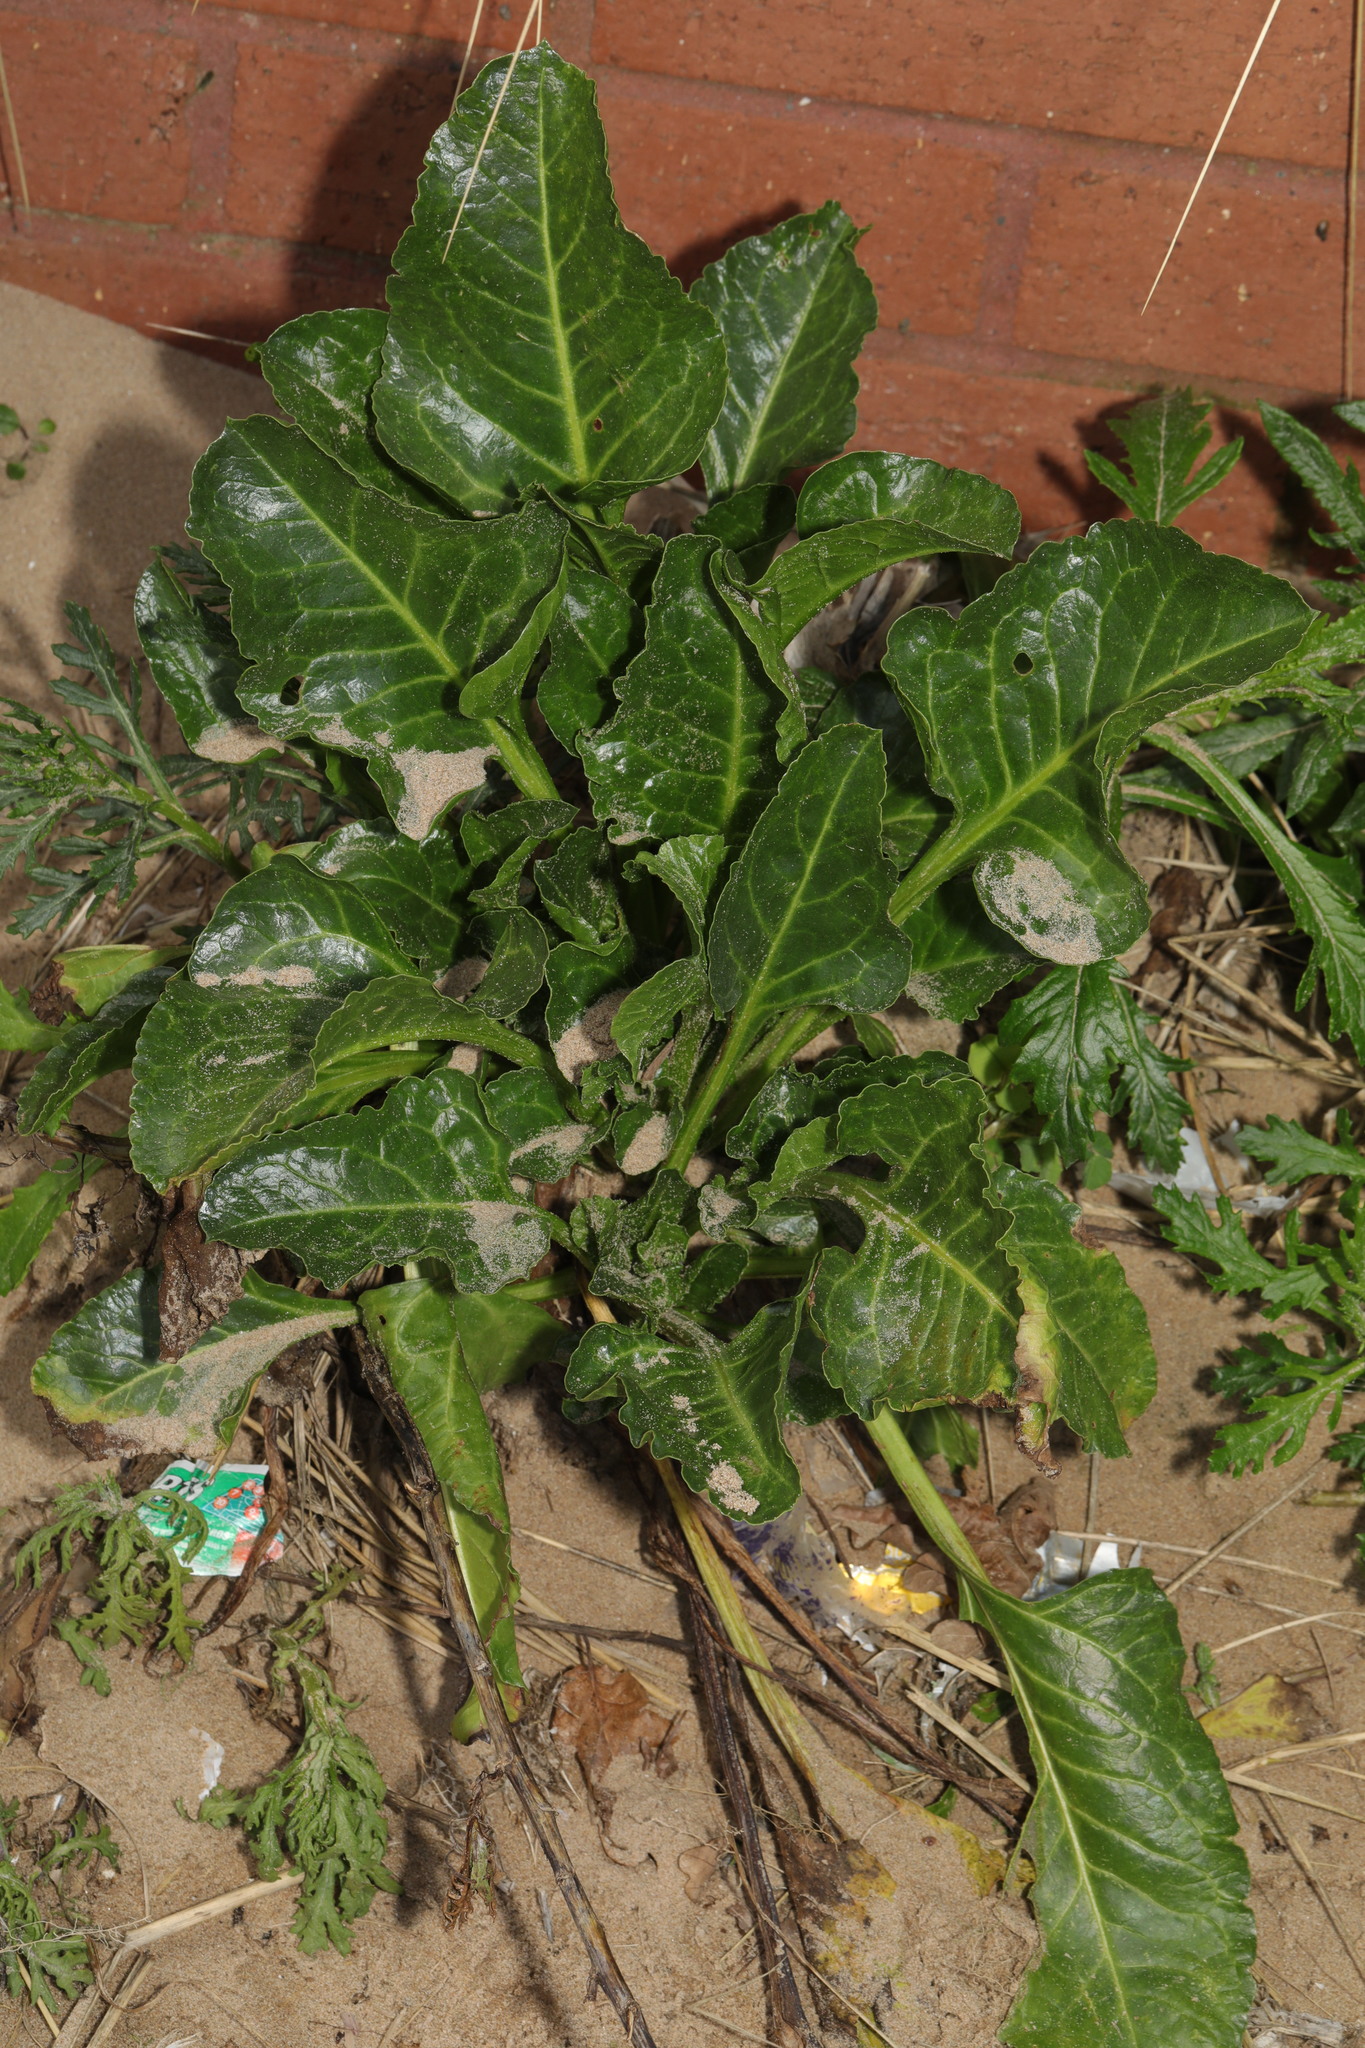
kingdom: Plantae
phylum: Tracheophyta
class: Magnoliopsida
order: Caryophyllales
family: Amaranthaceae
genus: Beta
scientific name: Beta vulgaris
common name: Beet
